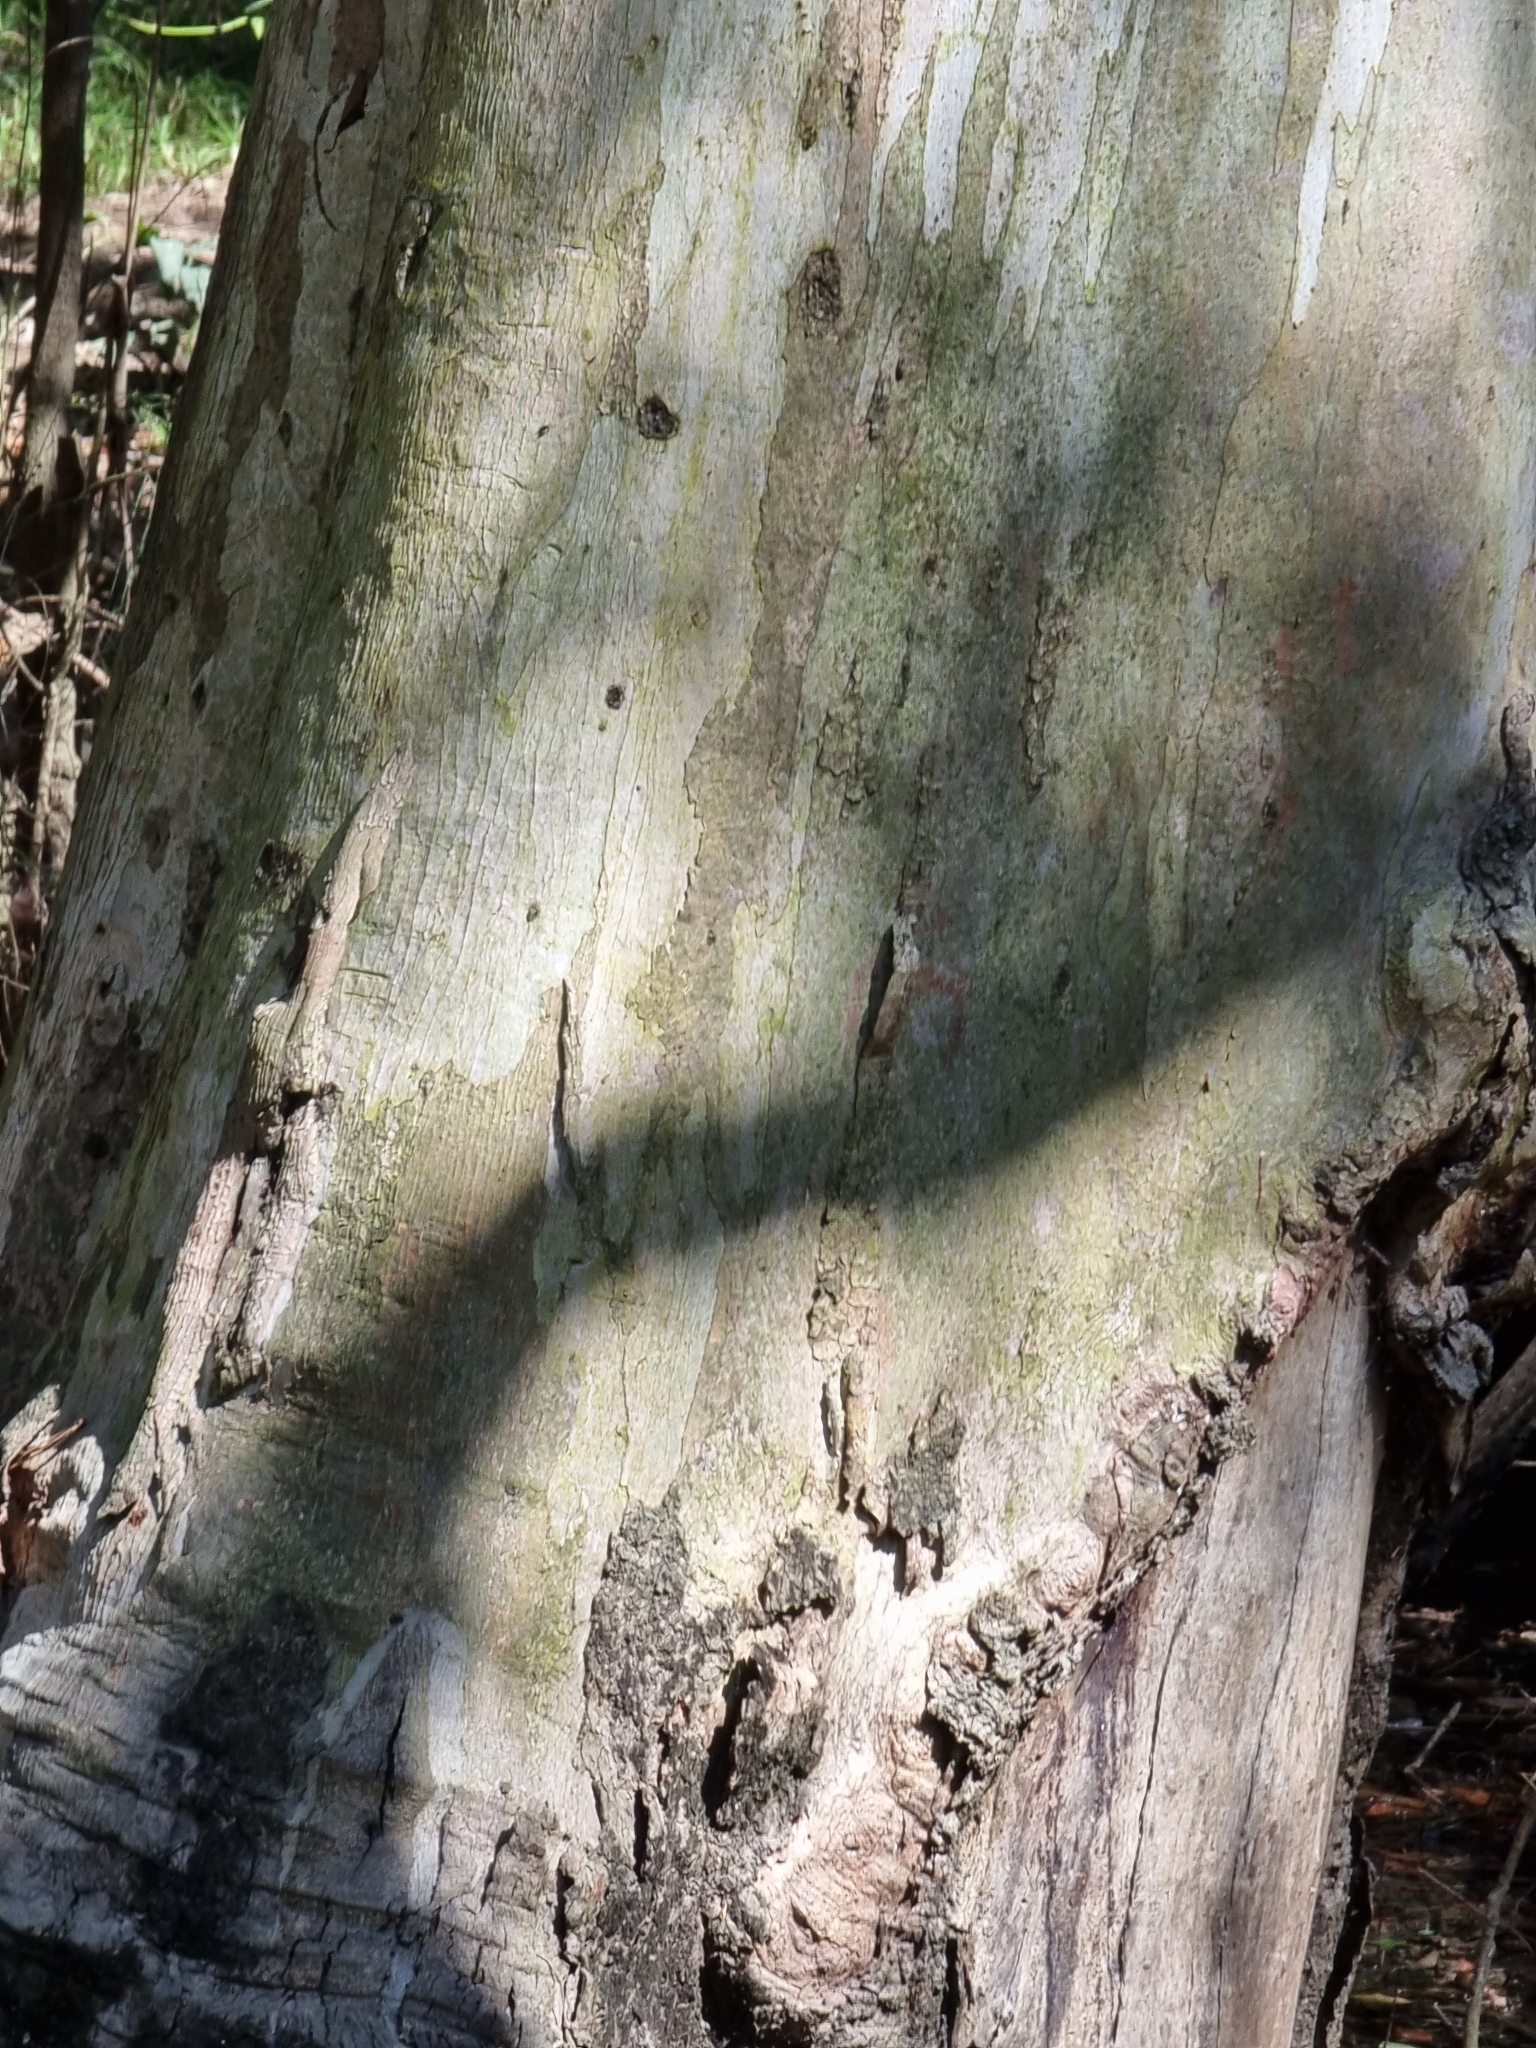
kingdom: Plantae
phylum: Tracheophyta
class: Magnoliopsida
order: Myrtales
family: Myrtaceae
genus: Eucalyptus
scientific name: Eucalyptus tereticornis
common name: Forest redgum
